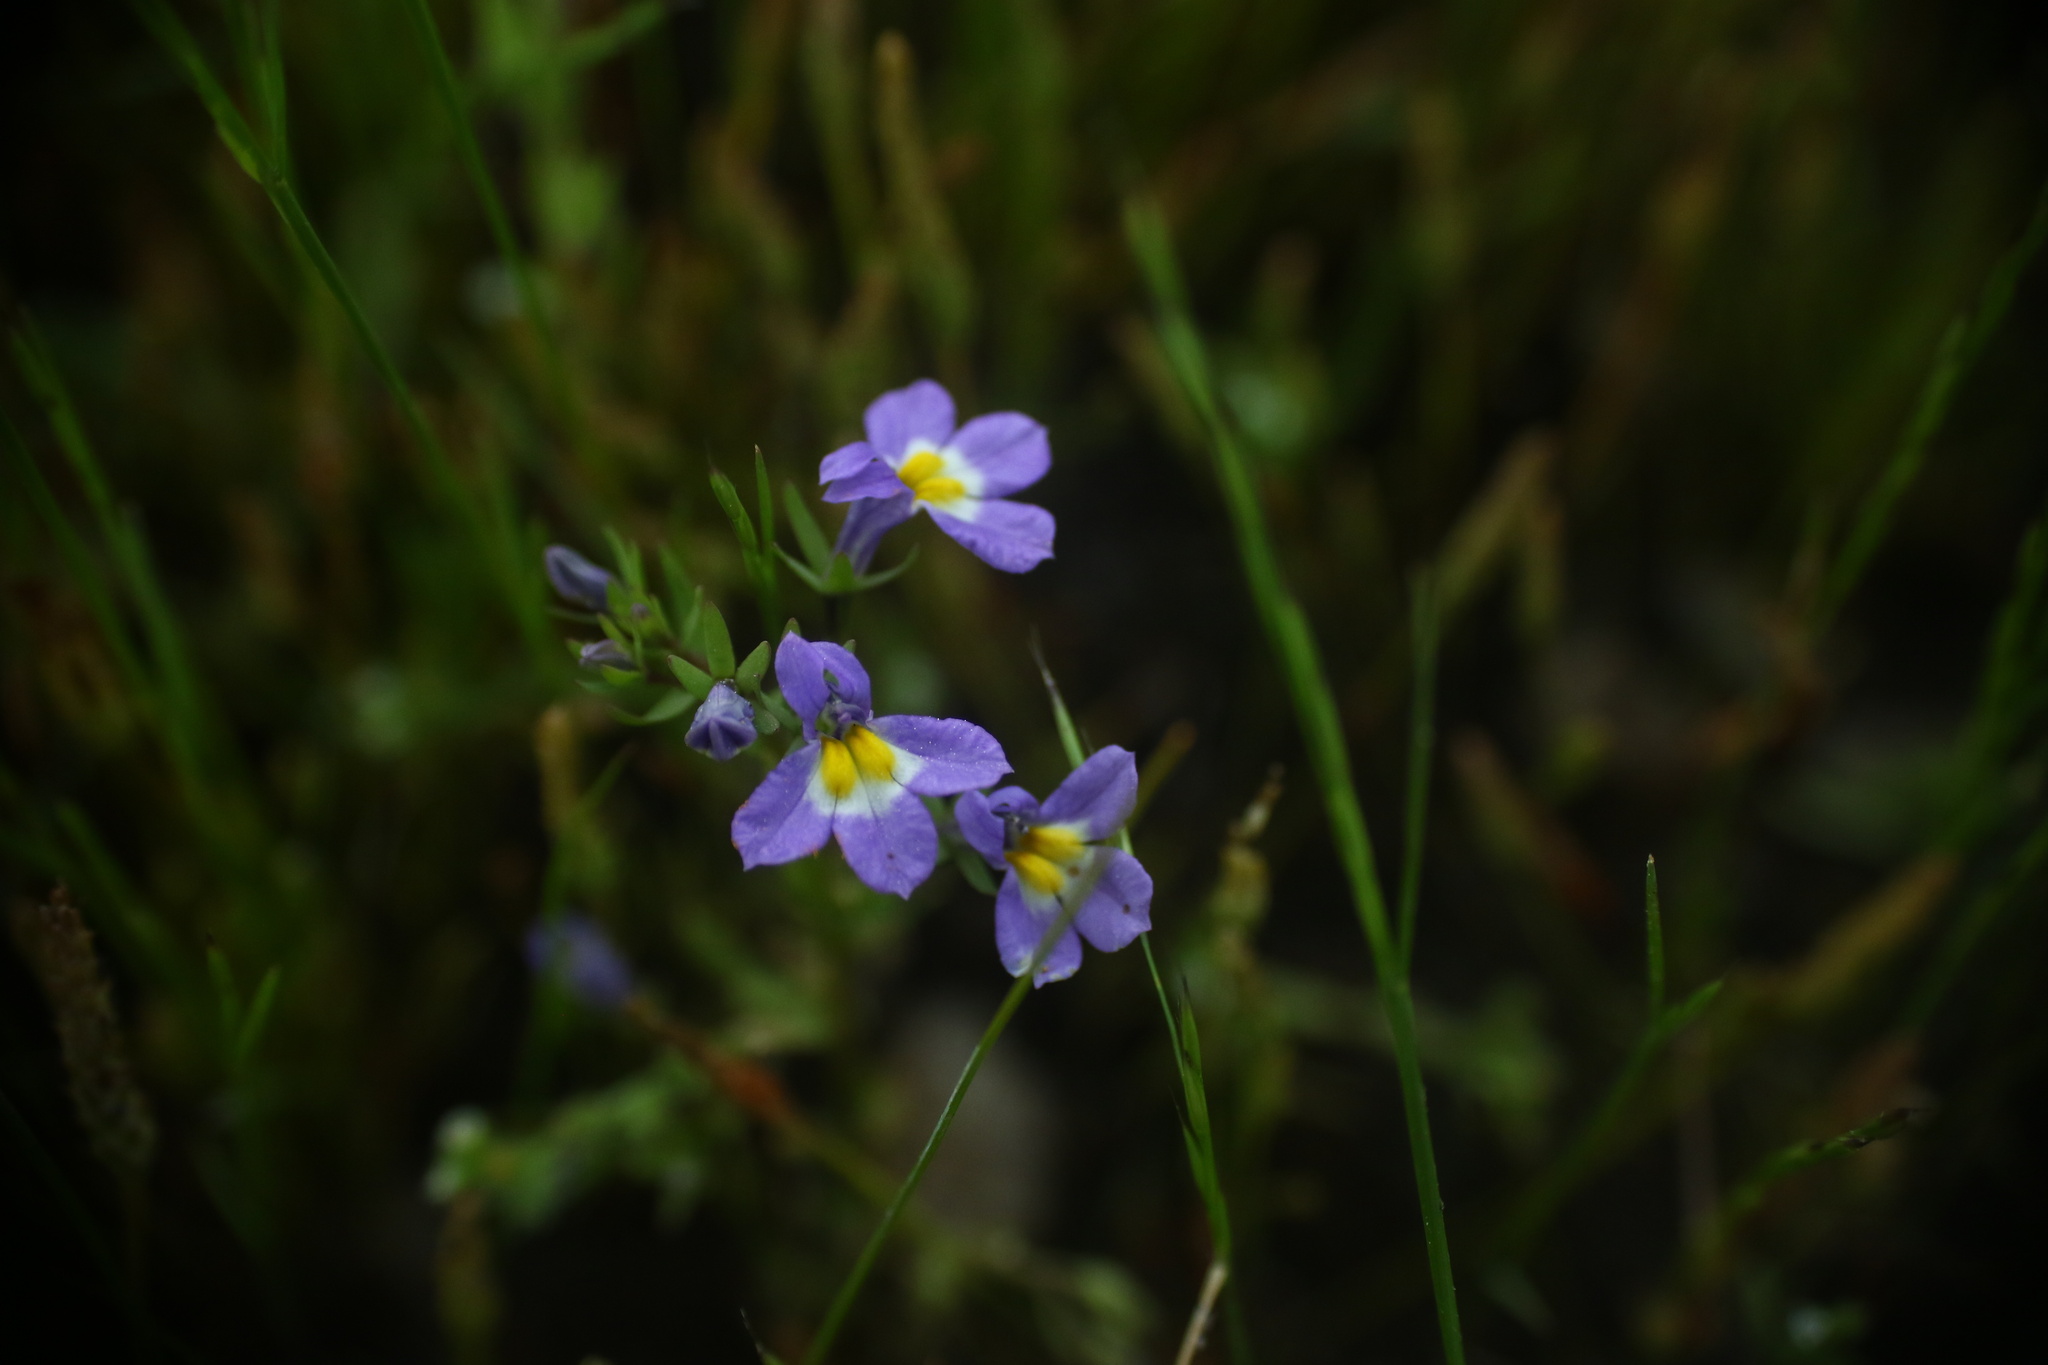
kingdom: Plantae
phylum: Tracheophyta
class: Magnoliopsida
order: Asterales
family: Campanulaceae
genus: Downingia
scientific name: Downingia yina
